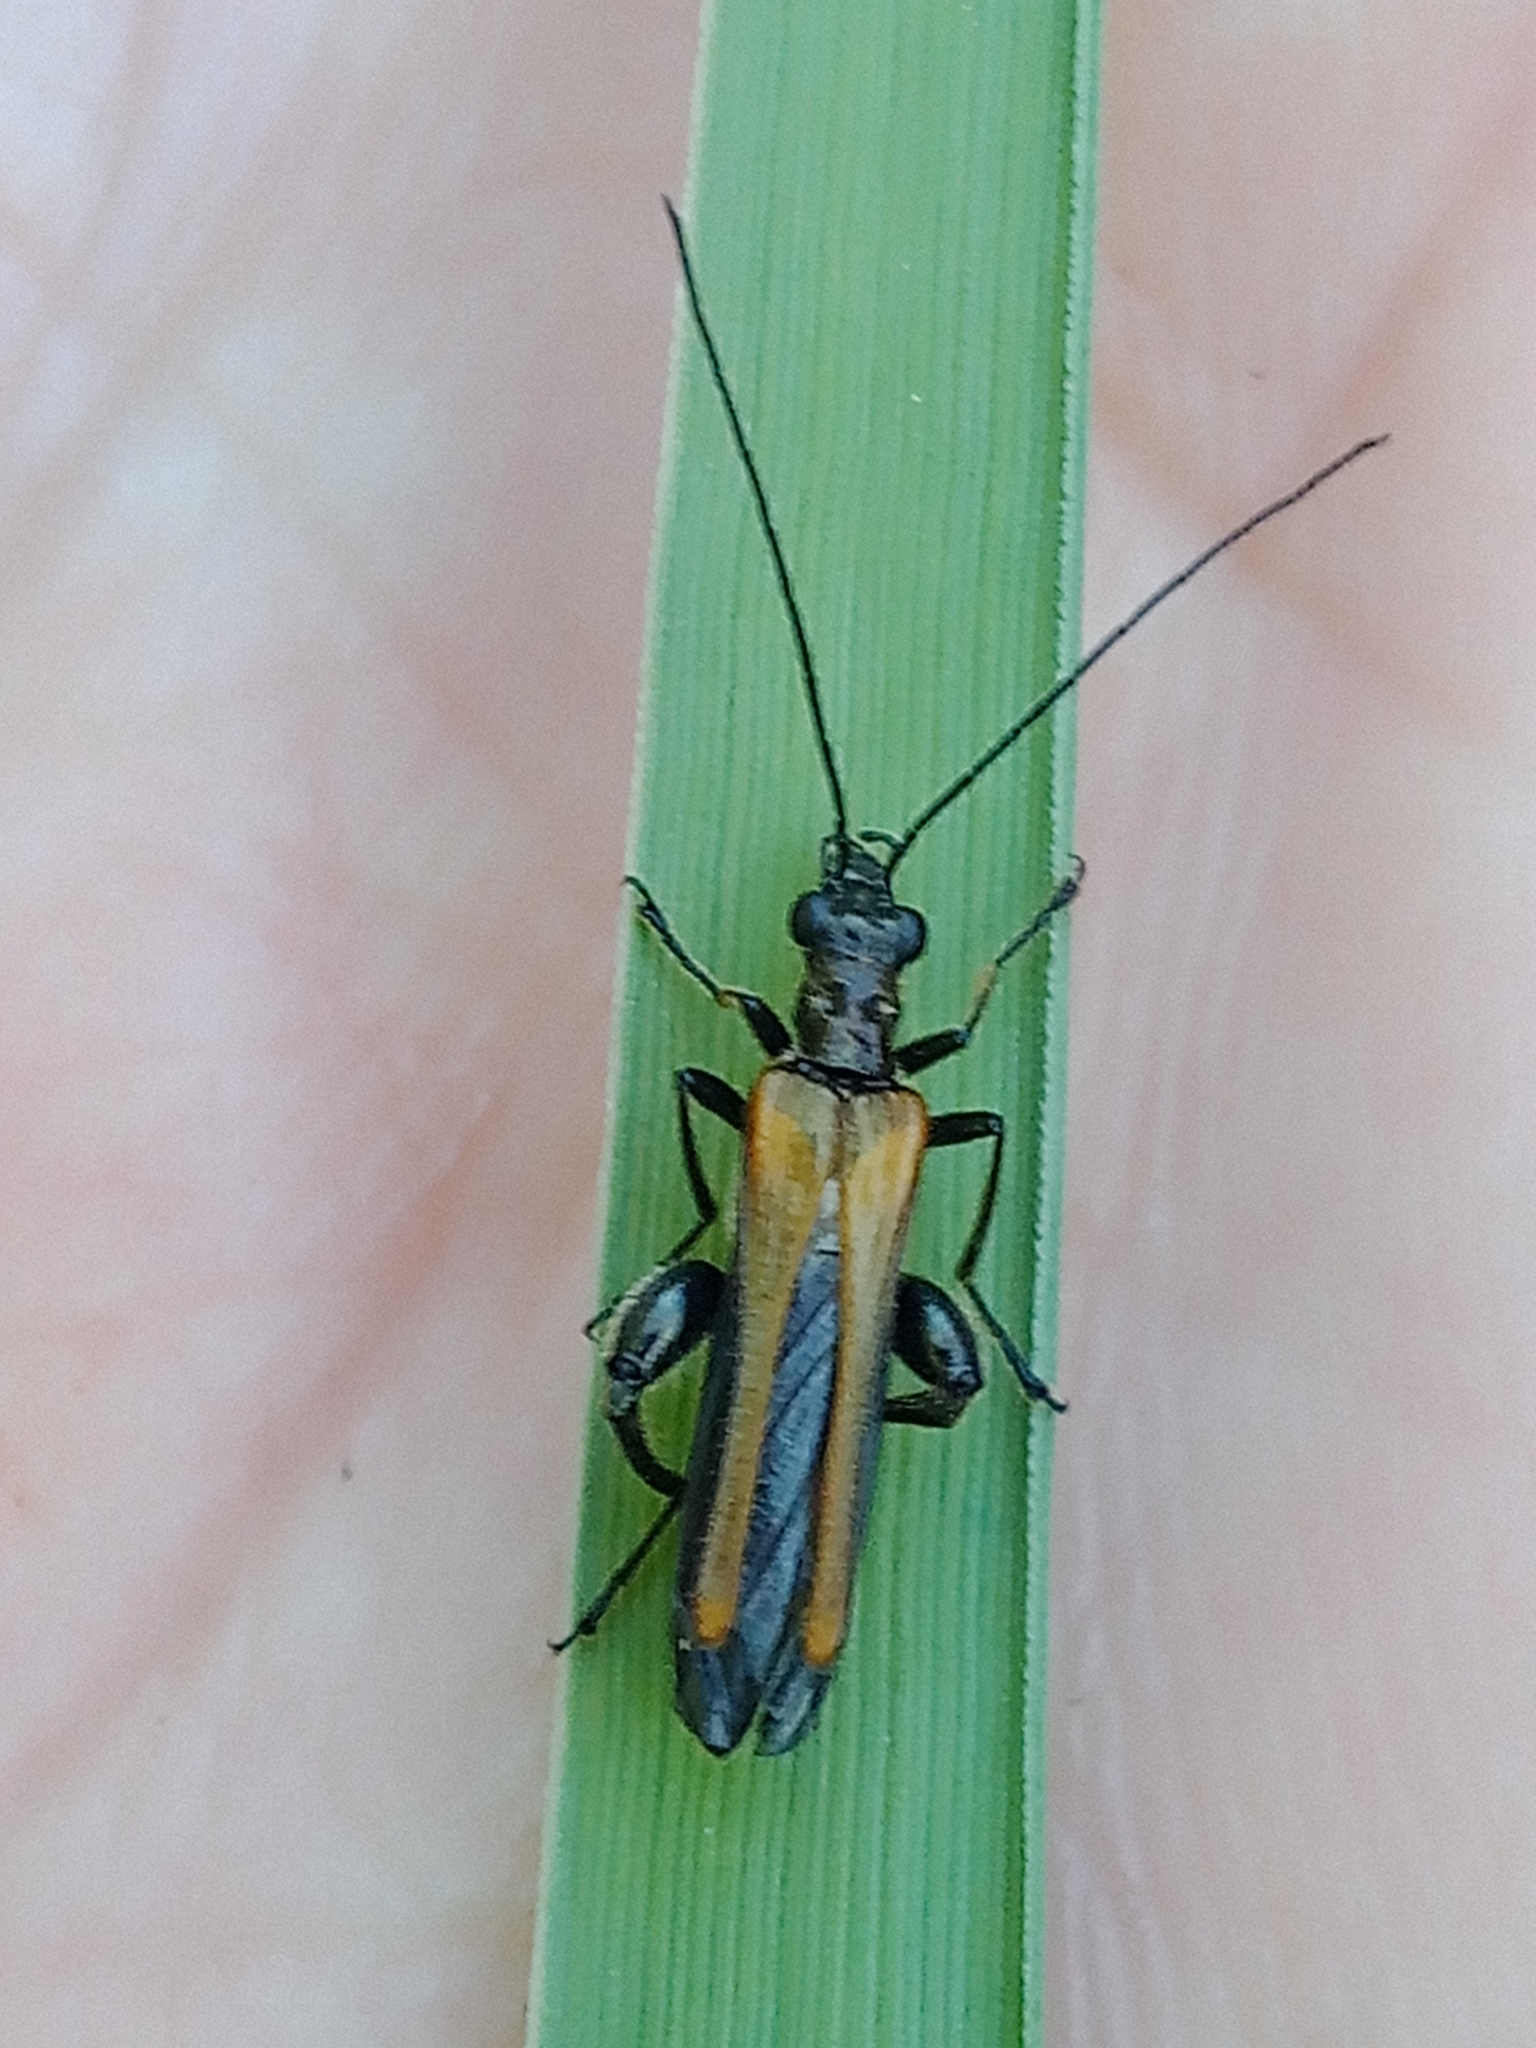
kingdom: Animalia
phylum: Arthropoda
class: Insecta
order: Coleoptera
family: Oedemeridae
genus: Oedemera
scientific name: Oedemera femorata
